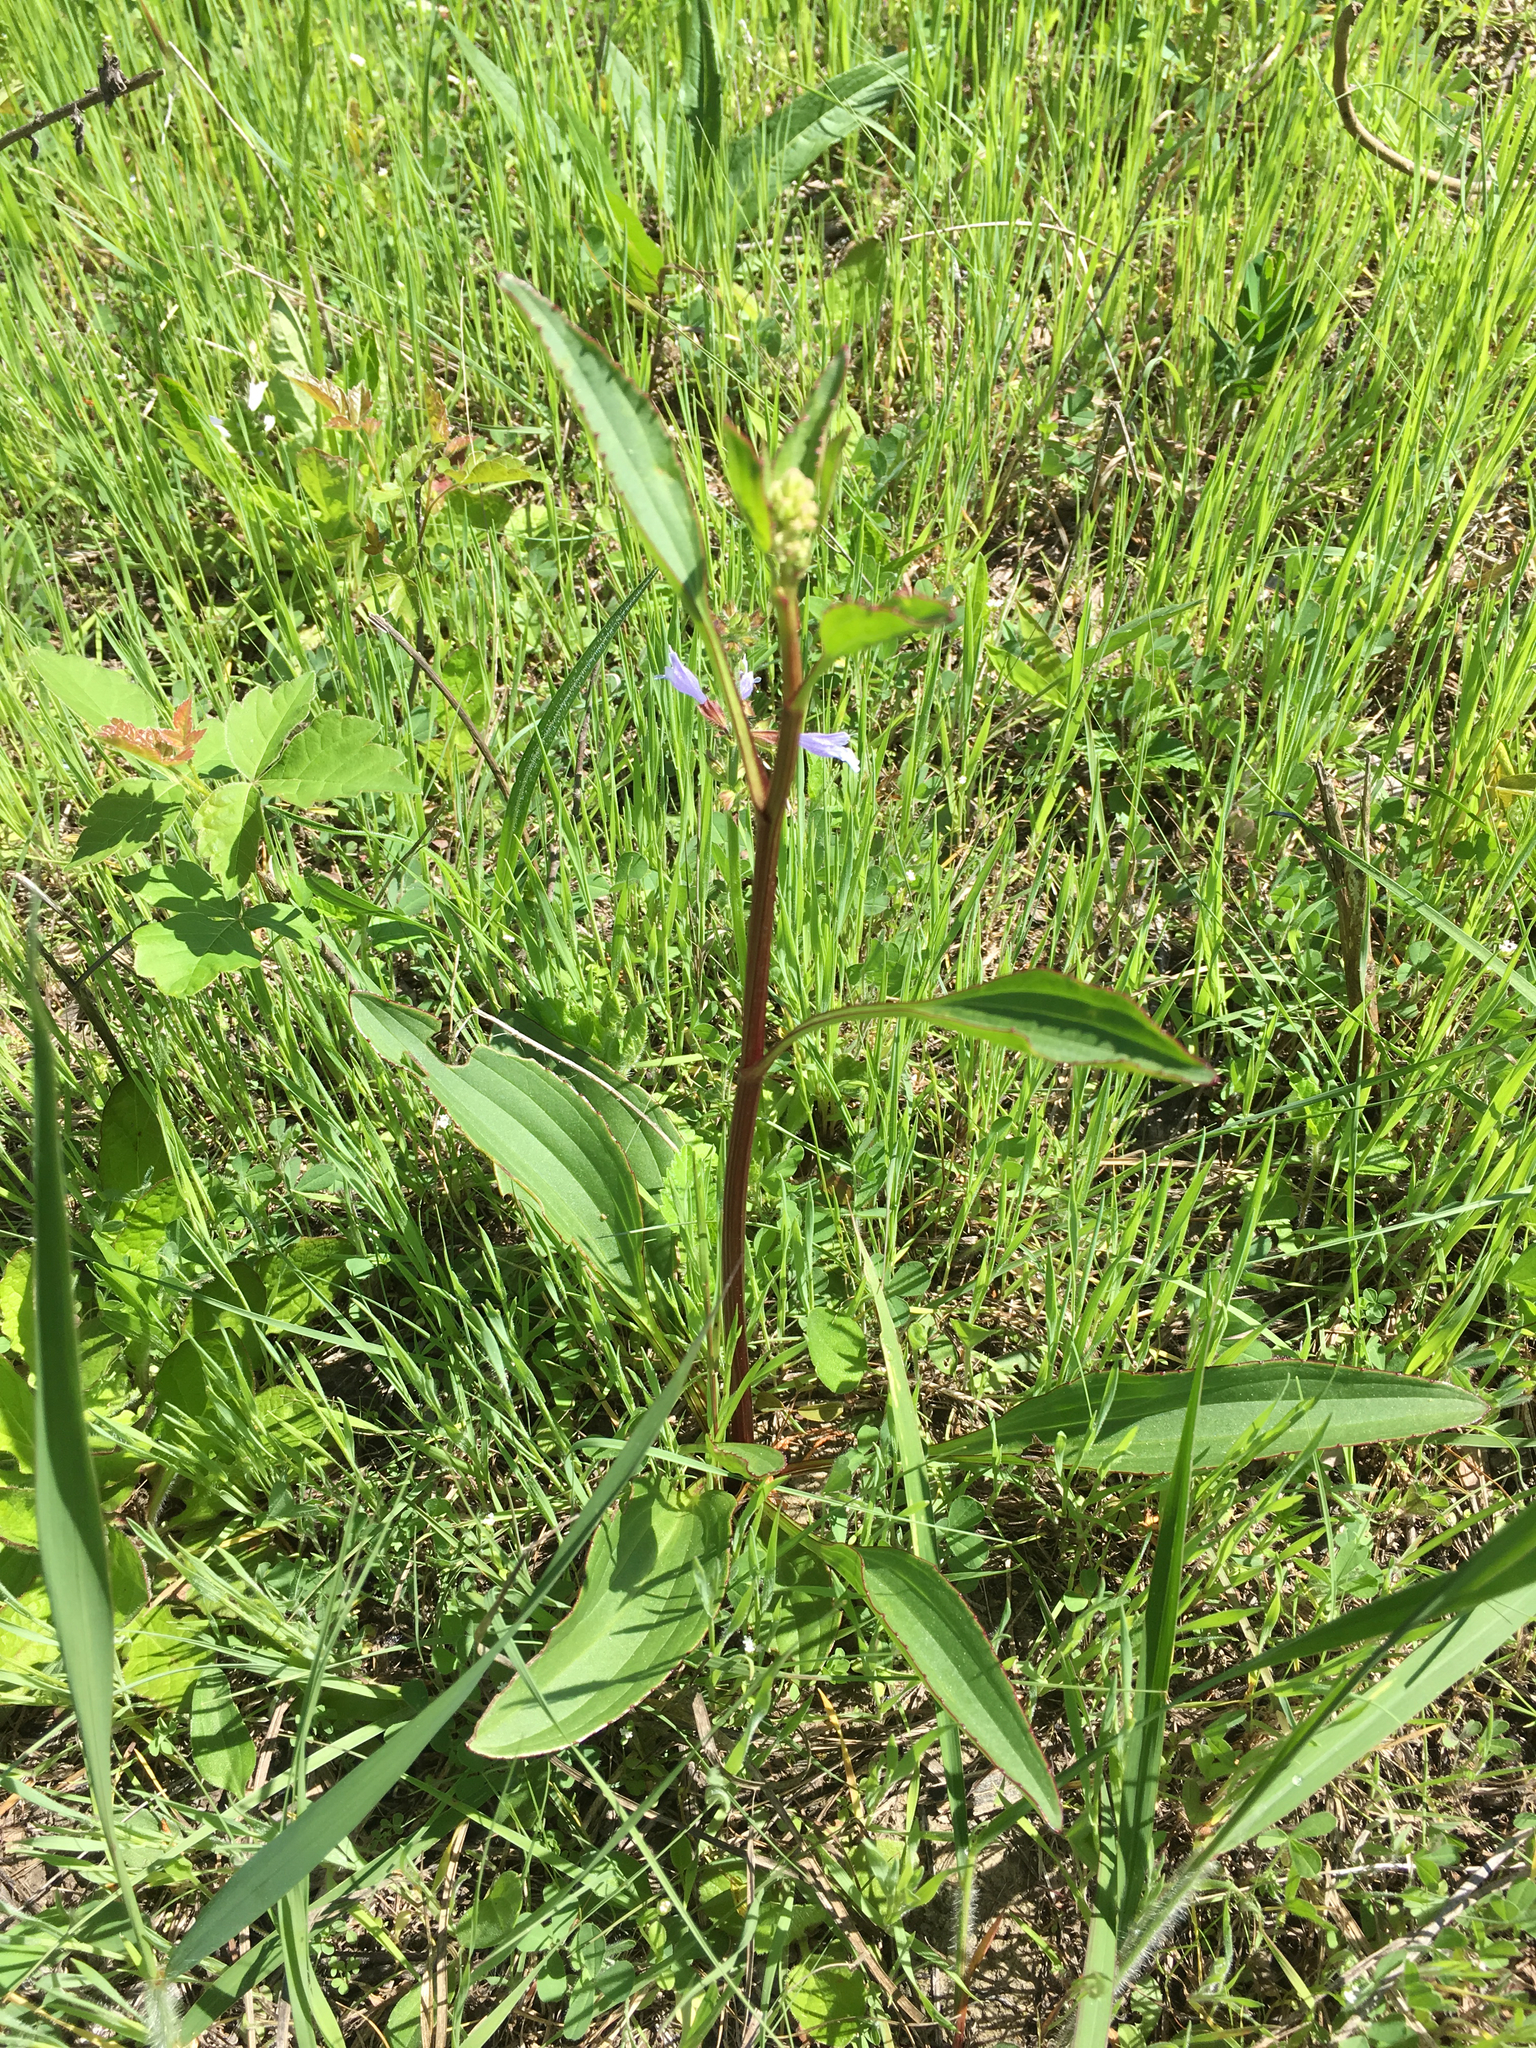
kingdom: Plantae
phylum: Tracheophyta
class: Magnoliopsida
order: Asterales
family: Asteraceae
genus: Arnoglossum
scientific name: Arnoglossum plantagineum
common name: Groove-stemmed indian-plantain
